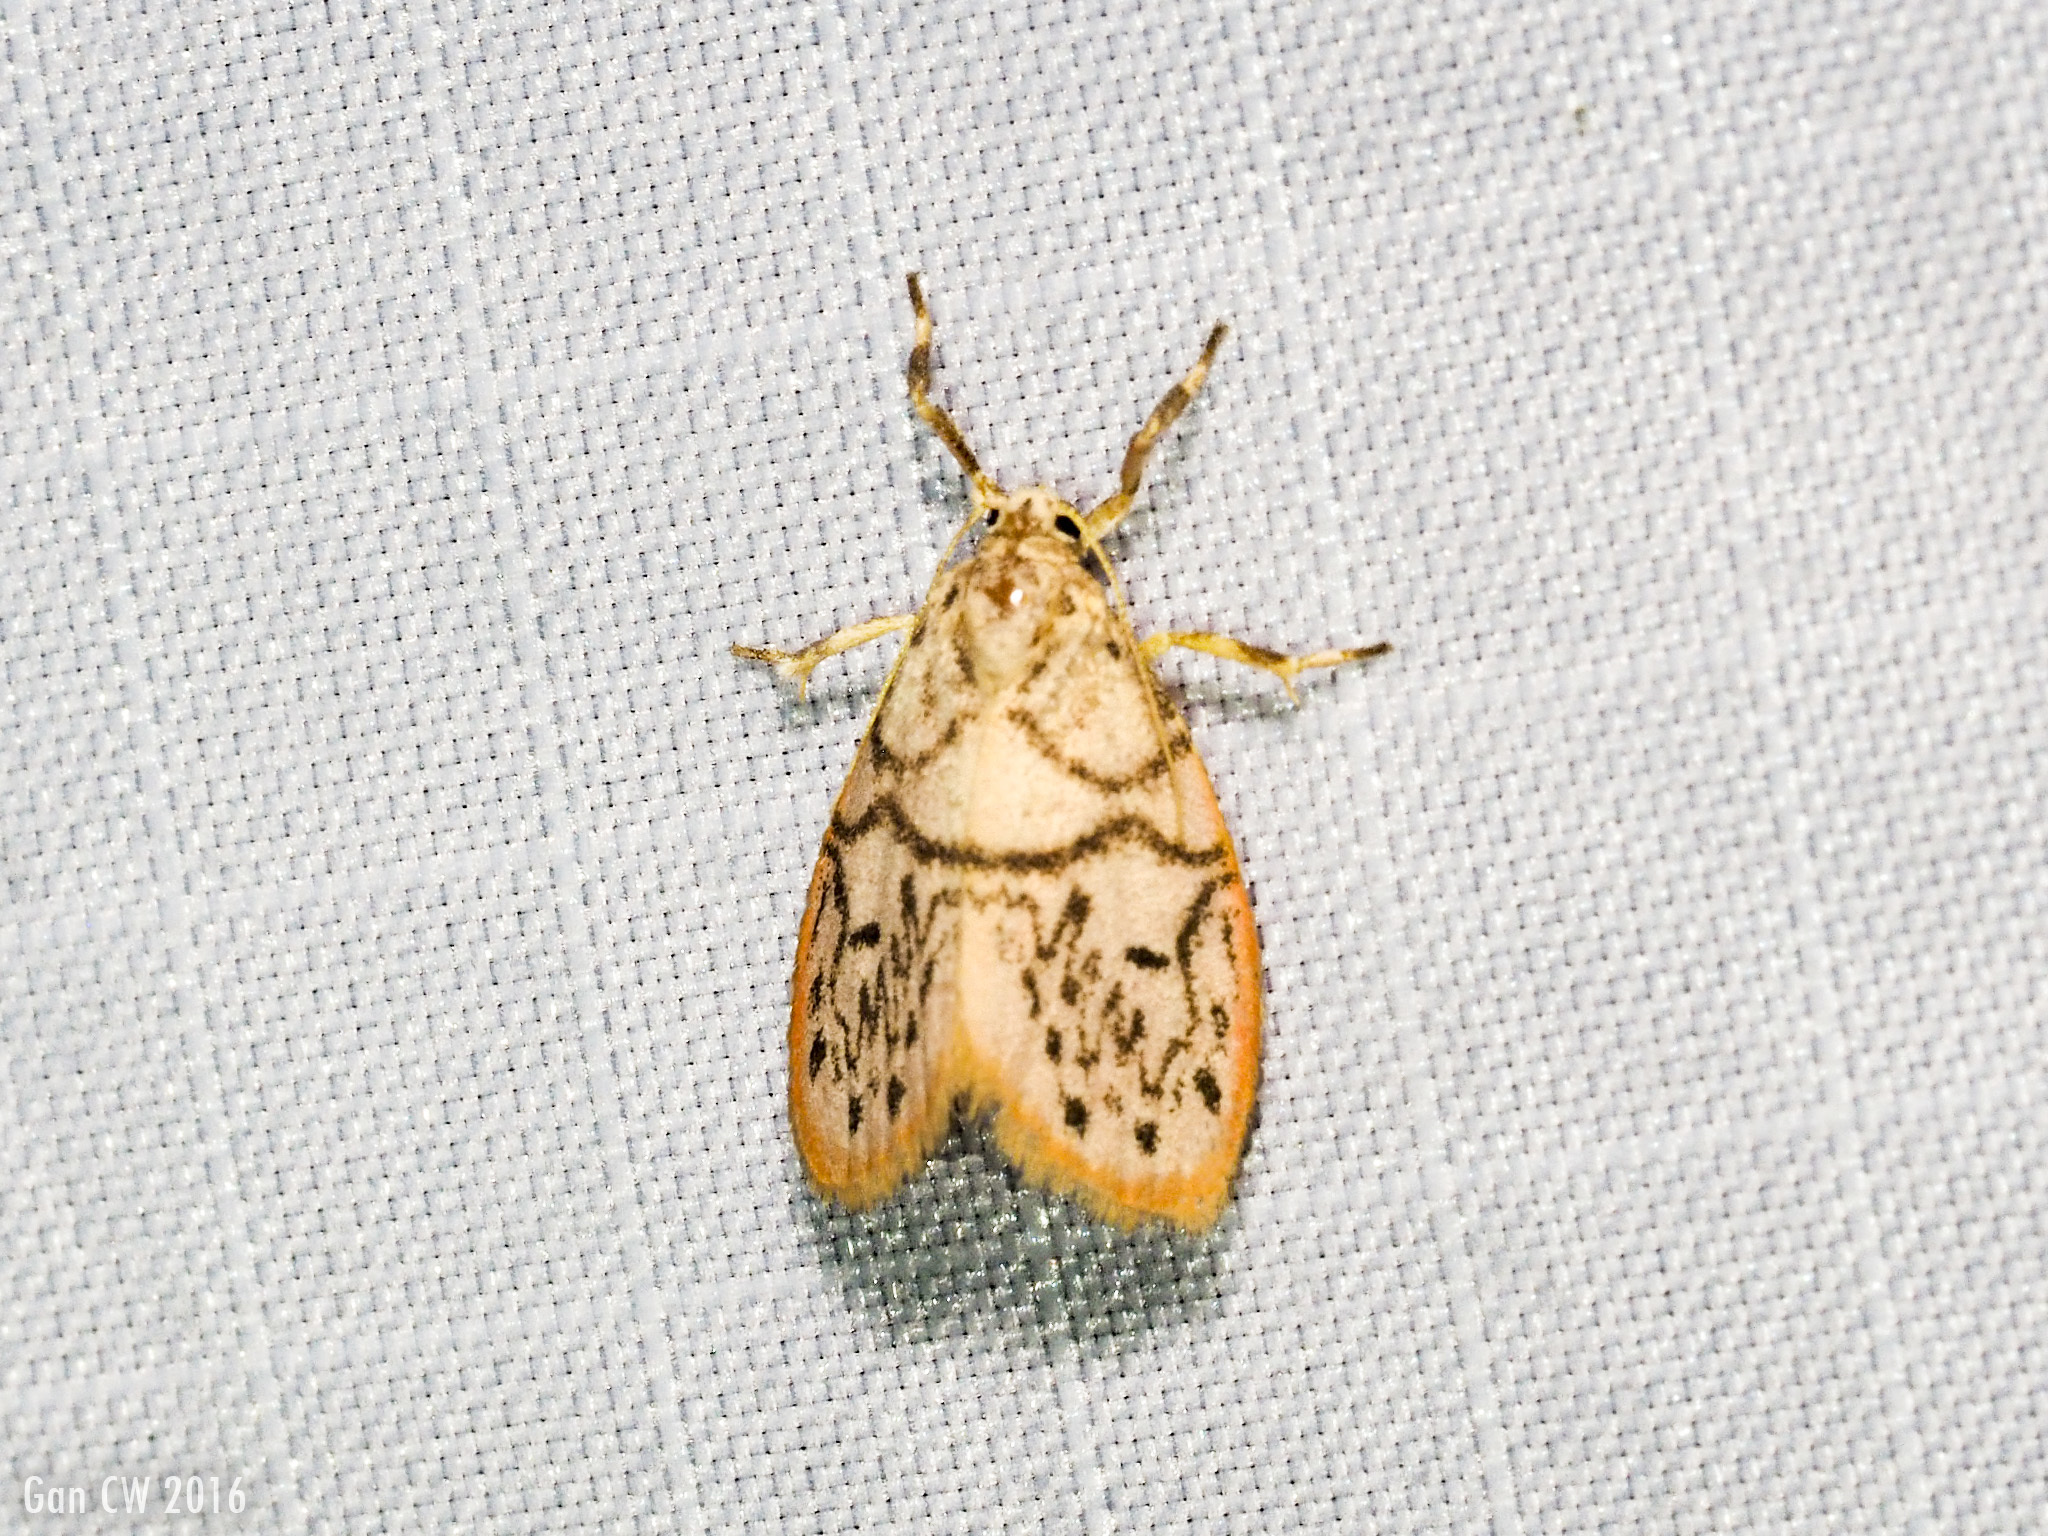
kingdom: Animalia
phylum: Arthropoda
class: Insecta
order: Lepidoptera
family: Erebidae
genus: Miltochrista
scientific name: Miltochrista pseudobunda
